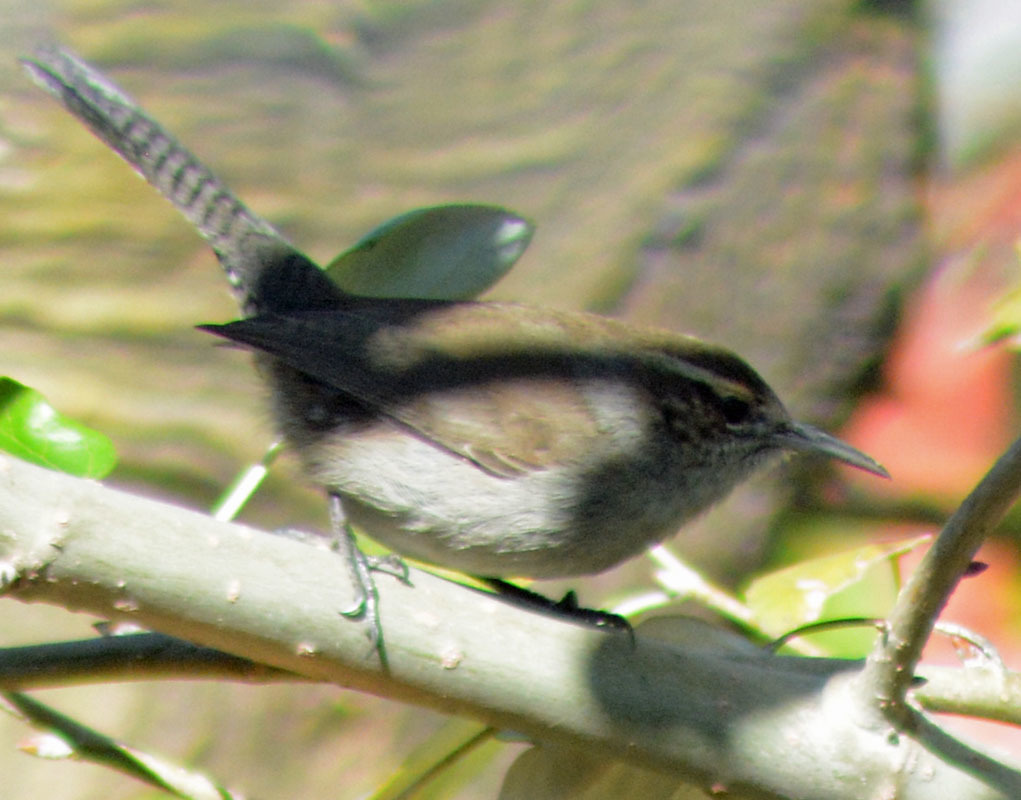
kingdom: Animalia
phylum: Chordata
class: Aves
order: Passeriformes
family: Troglodytidae
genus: Thryomanes
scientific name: Thryomanes bewickii
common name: Bewick's wren
